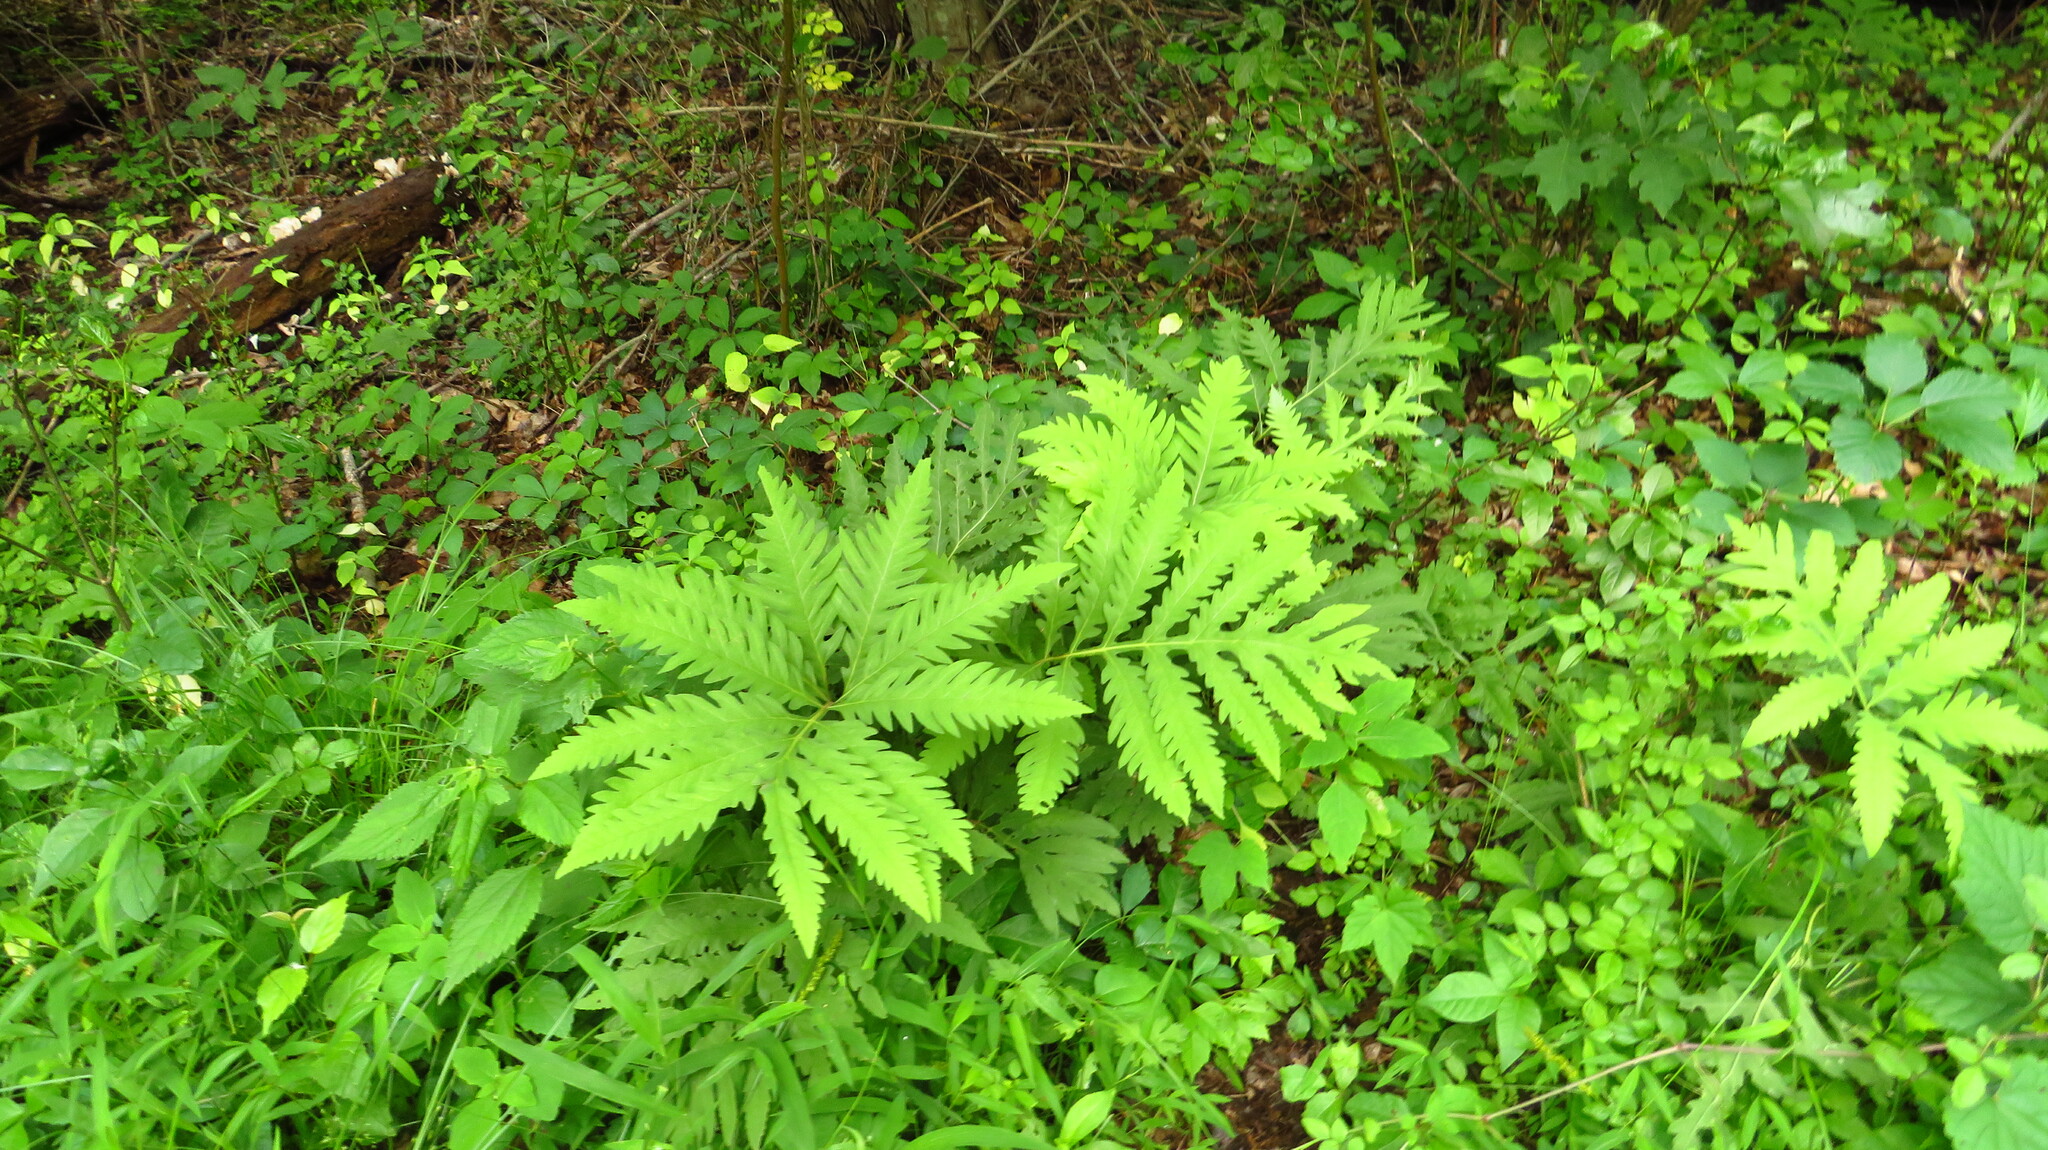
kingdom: Plantae
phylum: Tracheophyta
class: Polypodiopsida
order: Polypodiales
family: Onocleaceae
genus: Onoclea
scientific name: Onoclea sensibilis
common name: Sensitive fern
